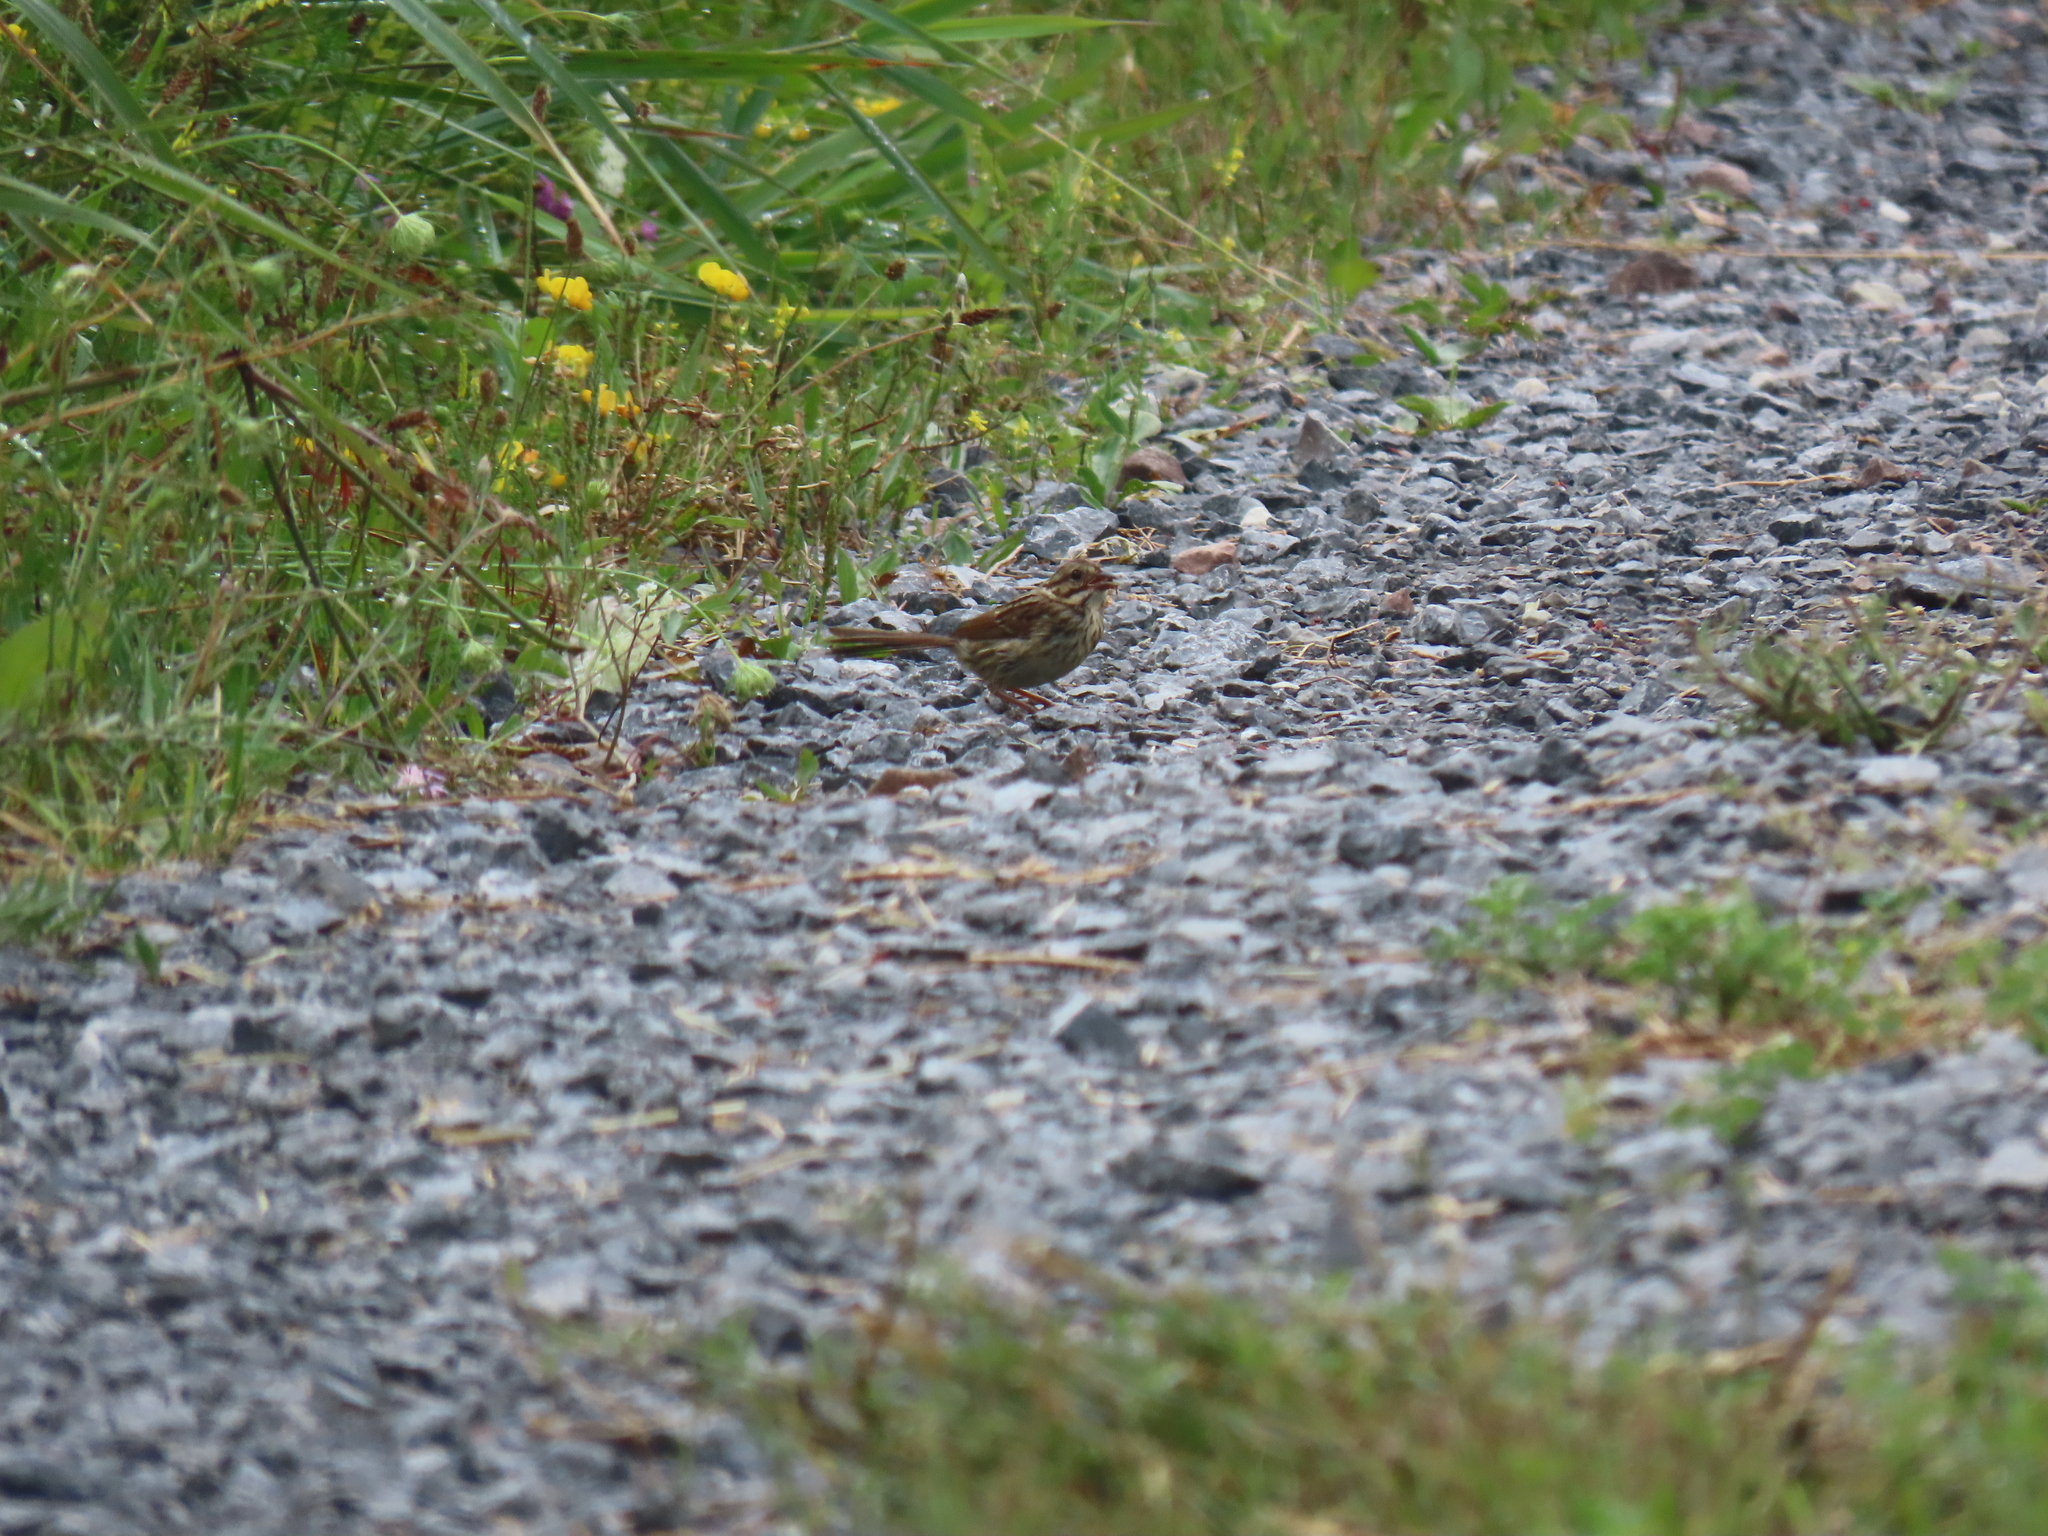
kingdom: Animalia
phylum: Chordata
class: Aves
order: Passeriformes
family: Passerellidae
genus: Melospiza
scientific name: Melospiza melodia
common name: Song sparrow
